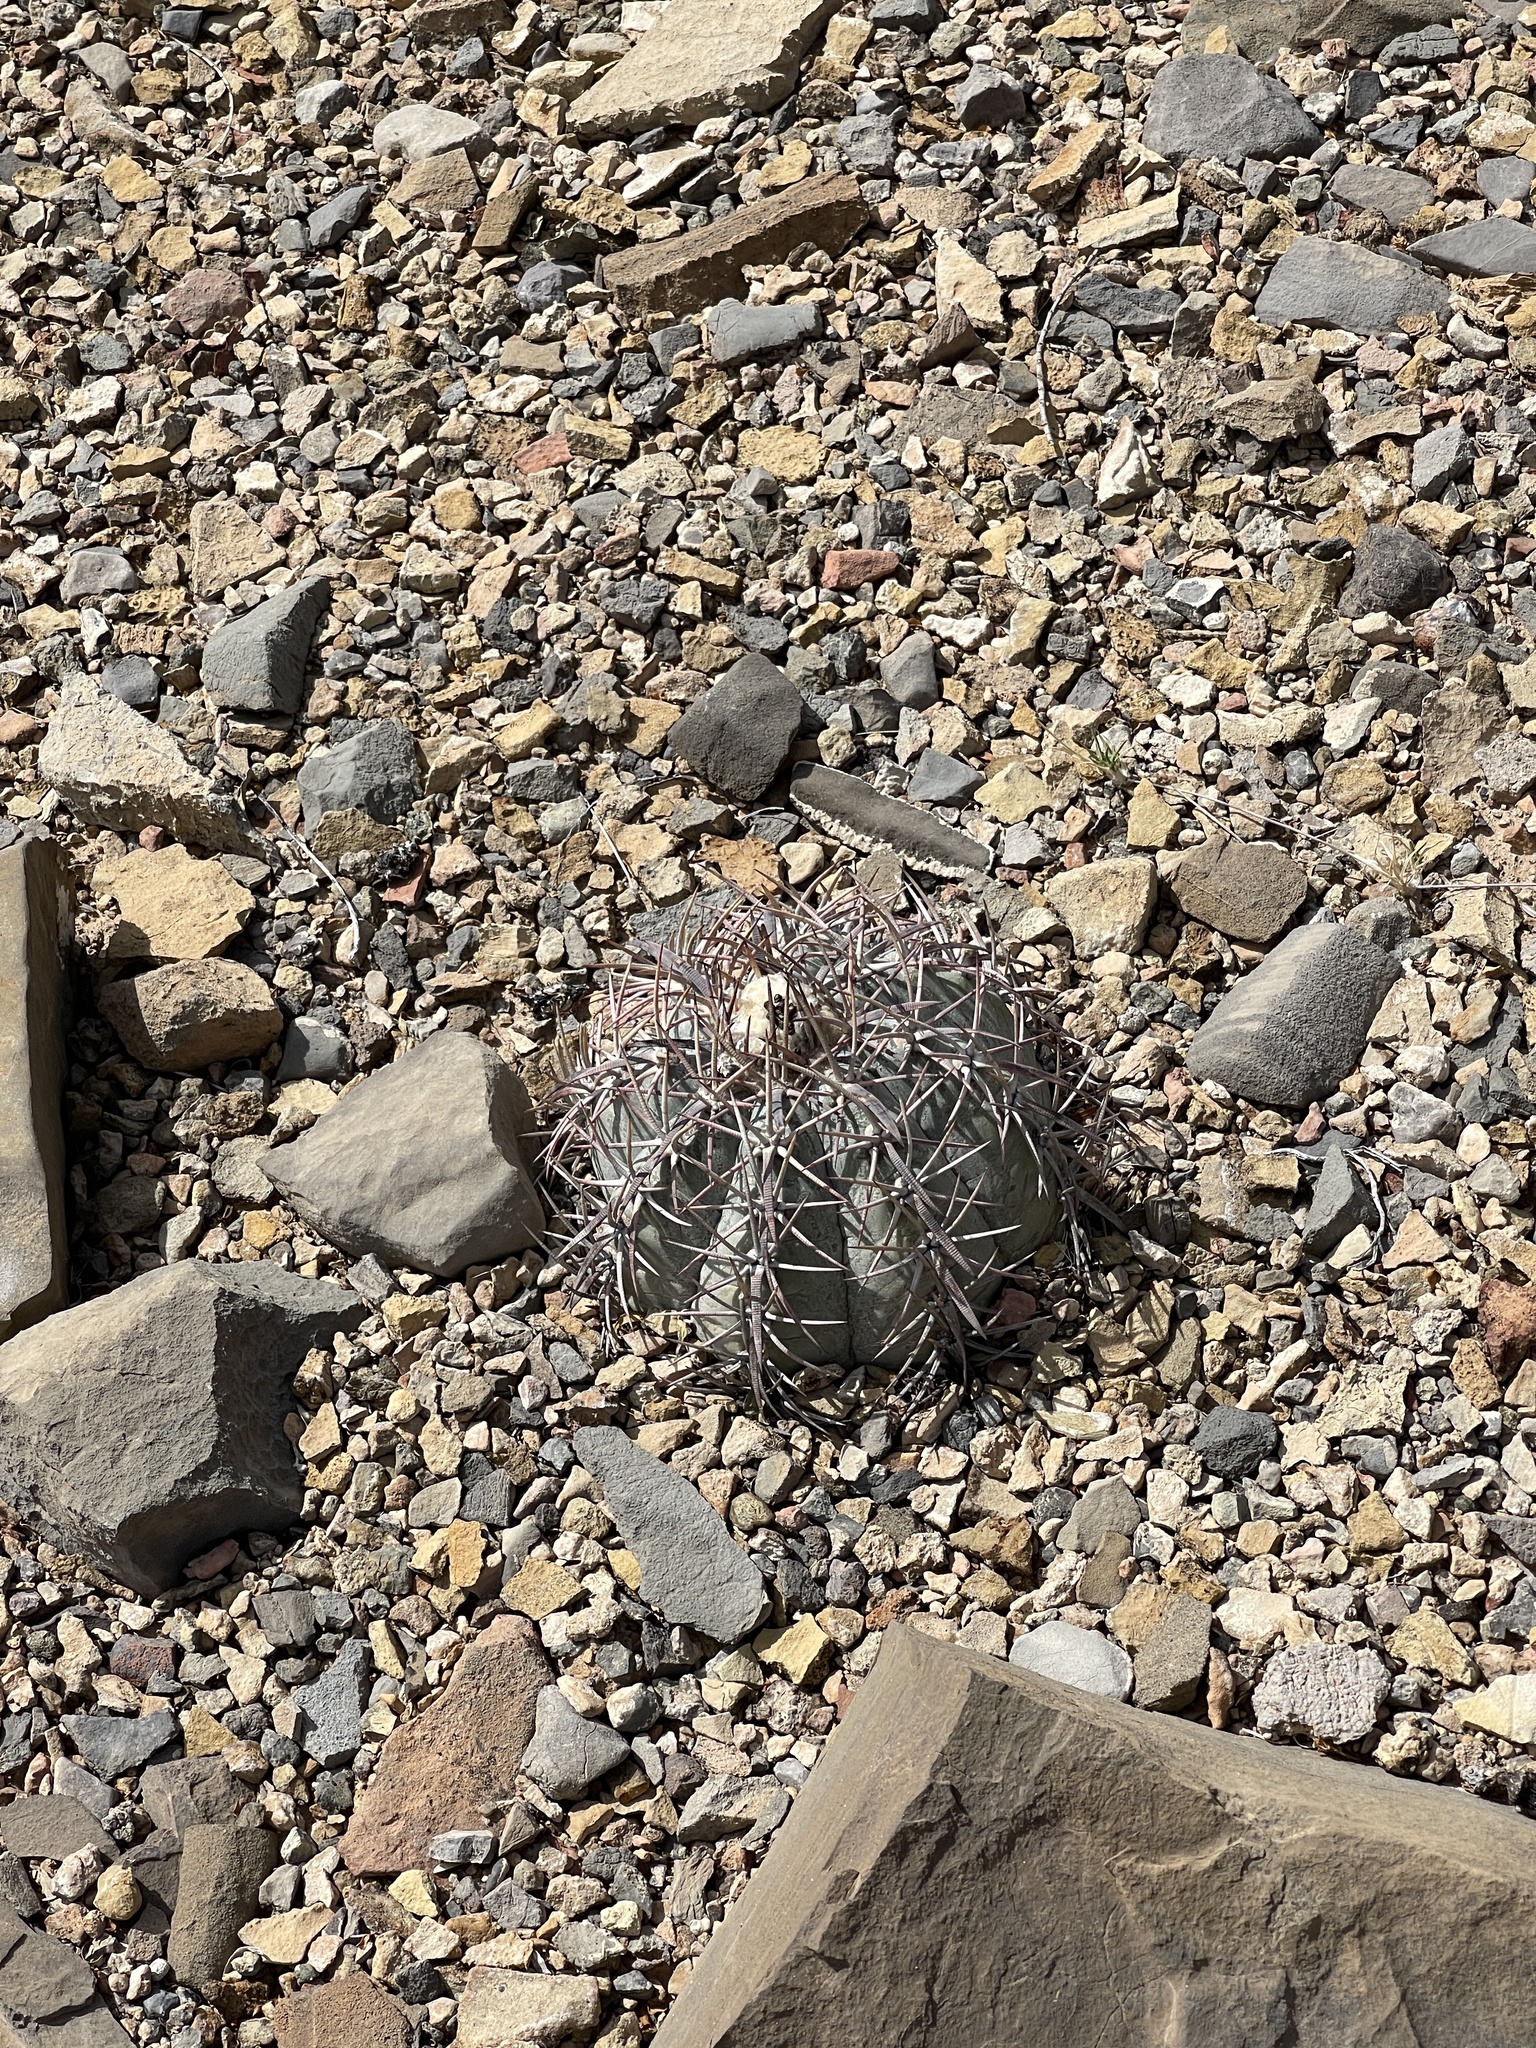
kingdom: Plantae
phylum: Tracheophyta
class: Magnoliopsida
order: Caryophyllales
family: Cactaceae
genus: Echinocactus
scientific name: Echinocactus horizonthalonius
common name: Devilshead
